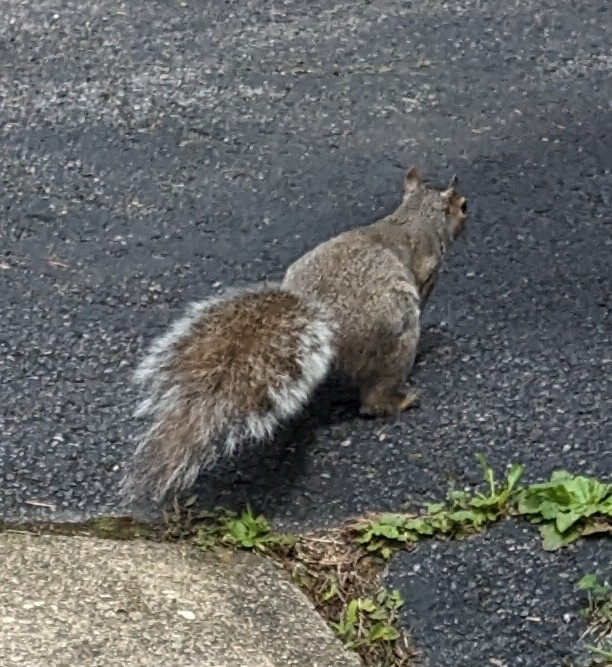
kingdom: Animalia
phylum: Chordata
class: Mammalia
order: Rodentia
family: Sciuridae
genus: Sciurus
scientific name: Sciurus carolinensis
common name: Eastern gray squirrel
